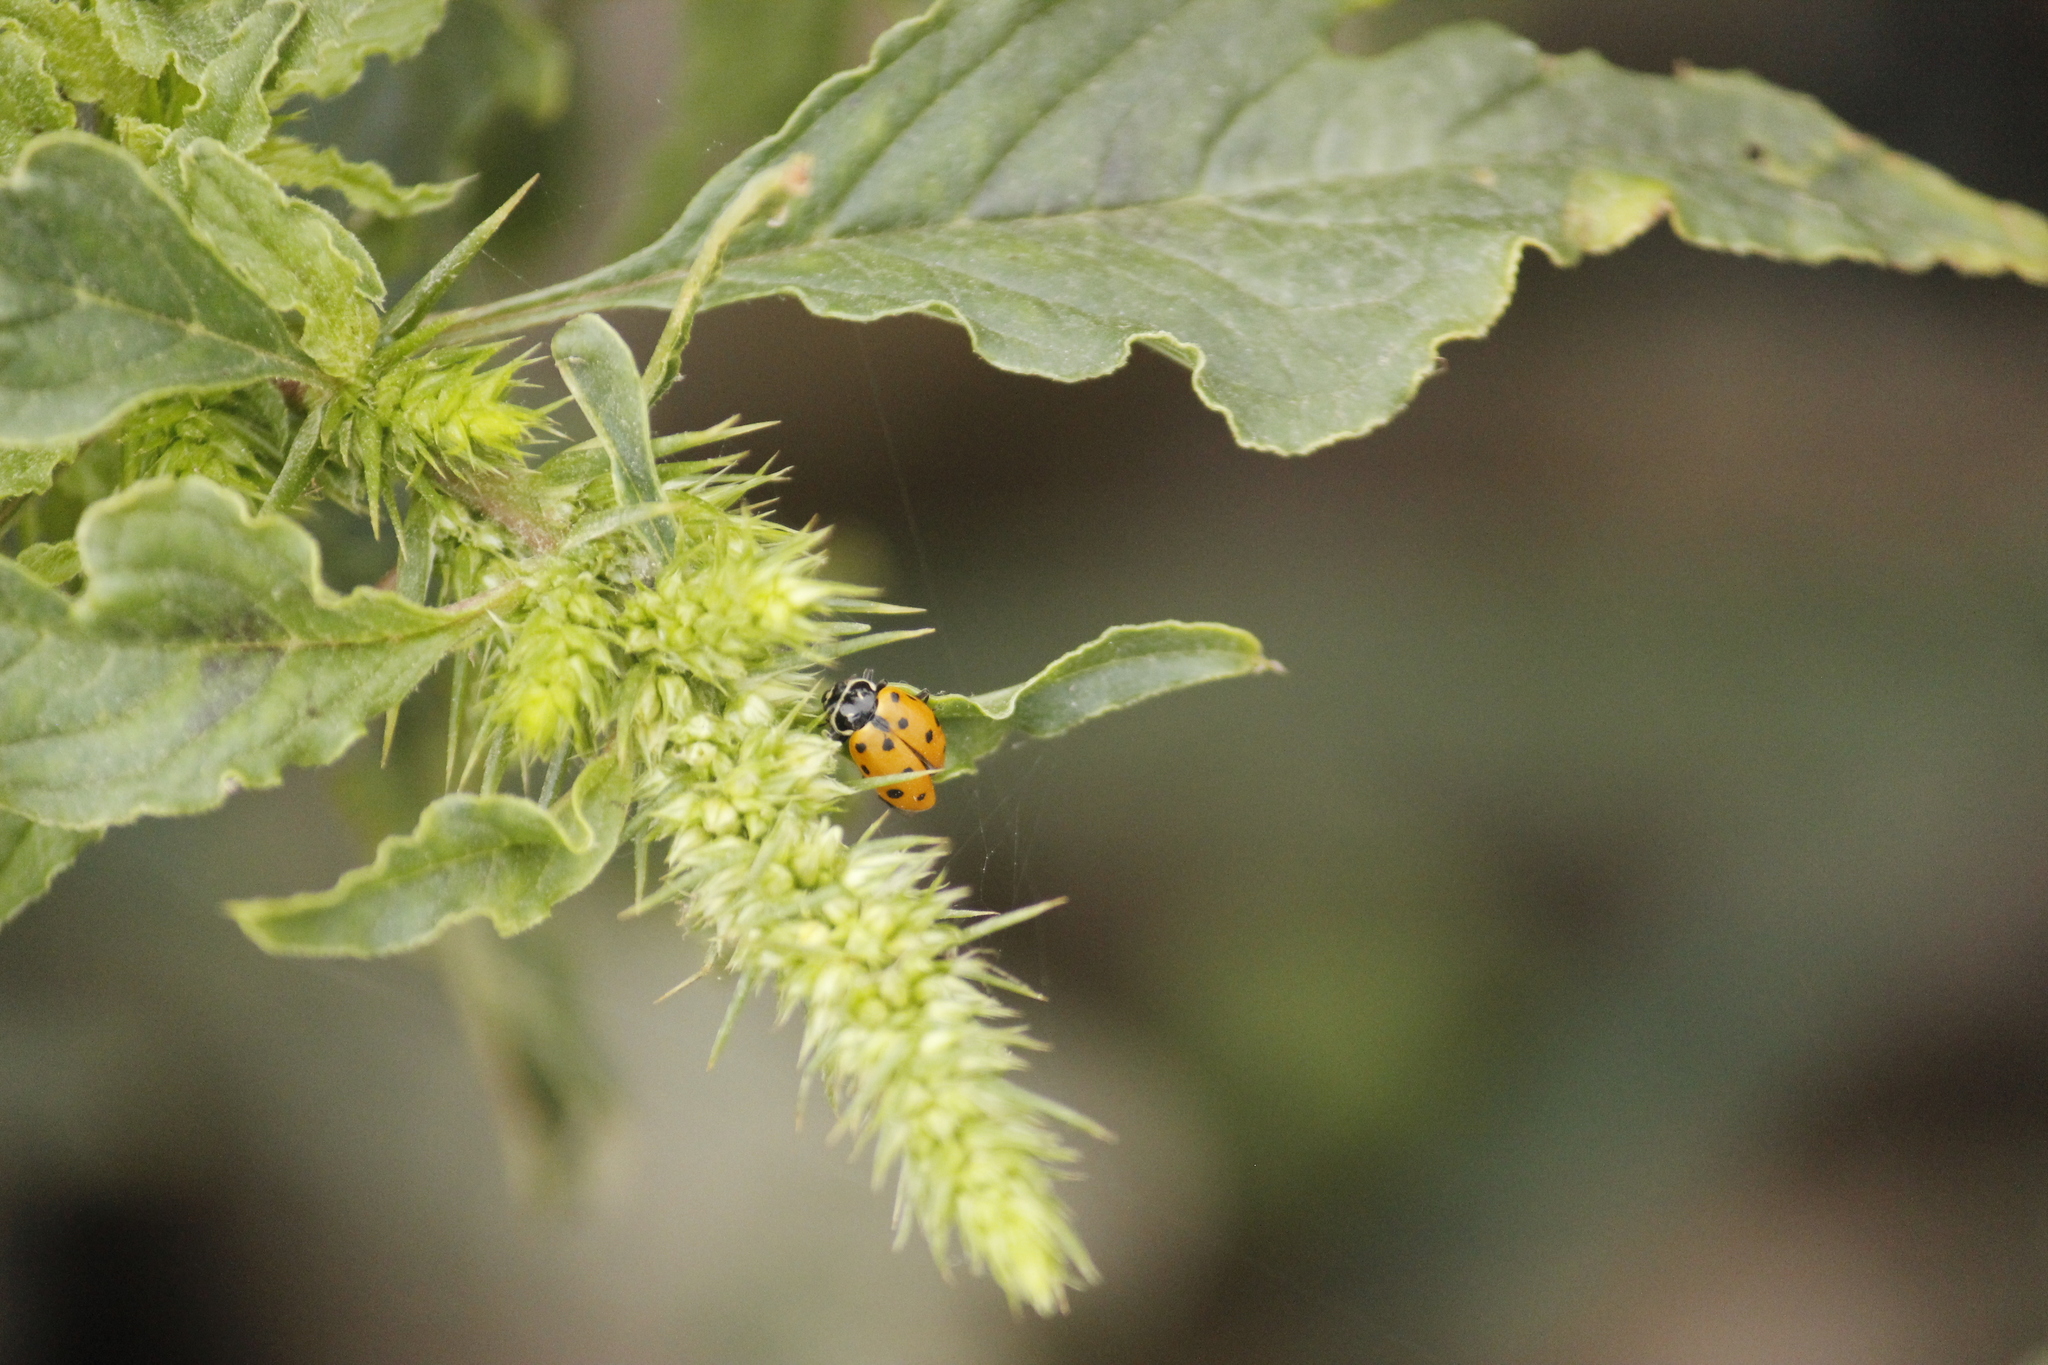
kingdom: Animalia
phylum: Arthropoda
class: Insecta
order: Coleoptera
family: Coccinellidae
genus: Hippodamia
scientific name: Hippodamia convergens
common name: Convergent lady beetle
